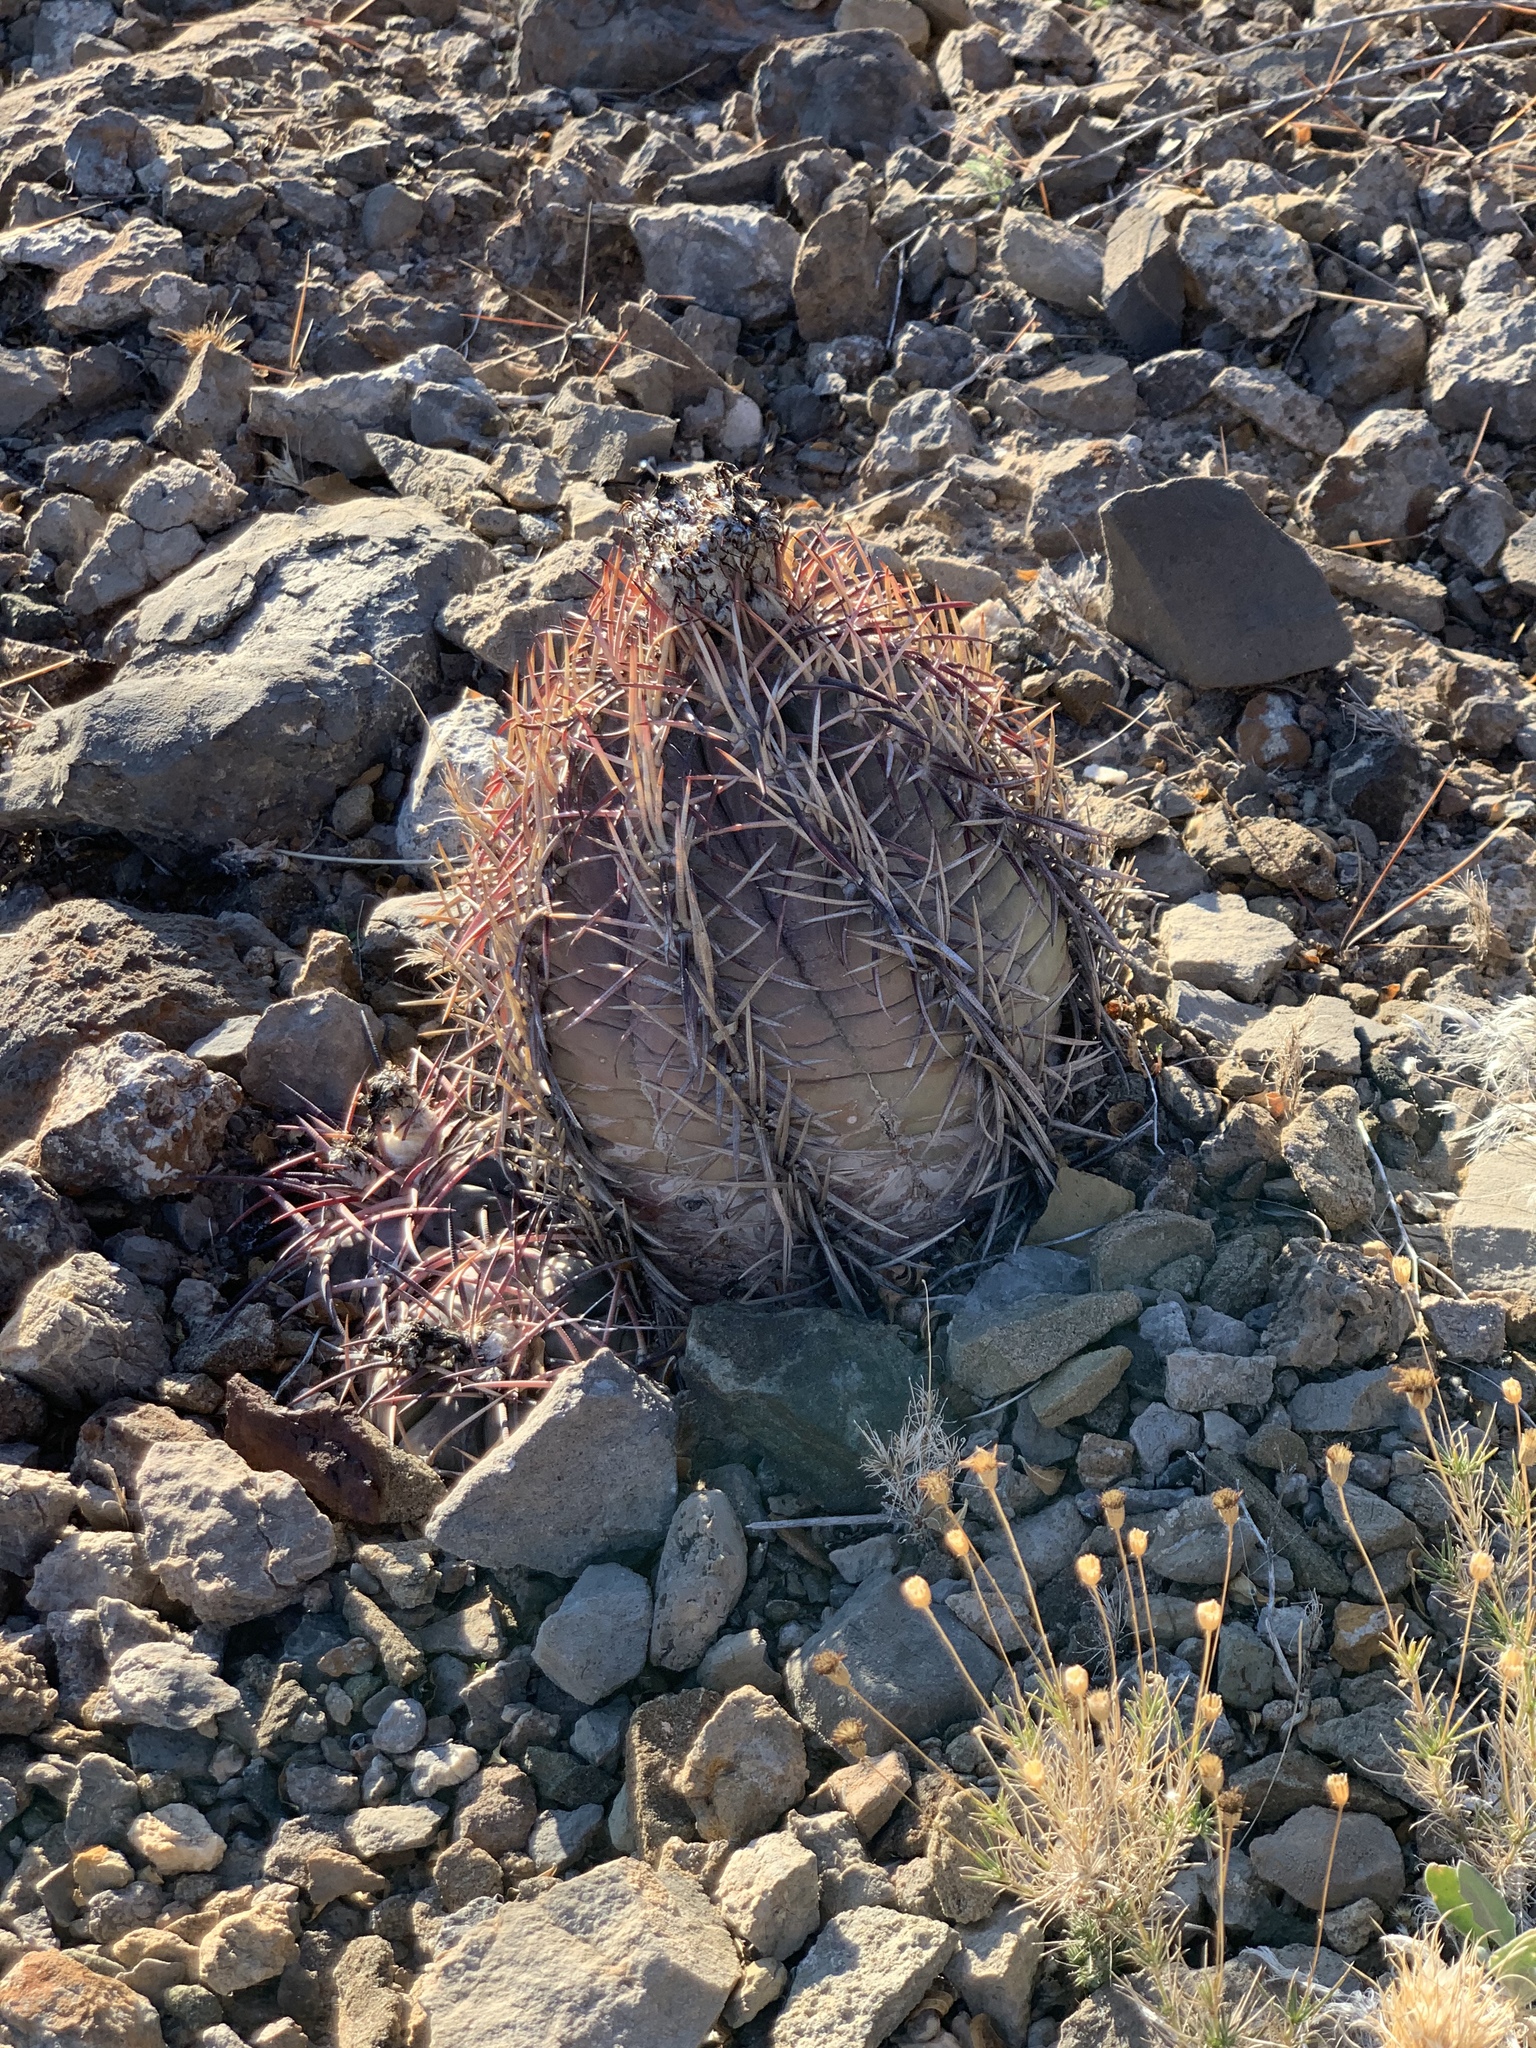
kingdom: Plantae
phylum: Tracheophyta
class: Magnoliopsida
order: Caryophyllales
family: Cactaceae
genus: Echinocactus
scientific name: Echinocactus horizonthalonius
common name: Devilshead
